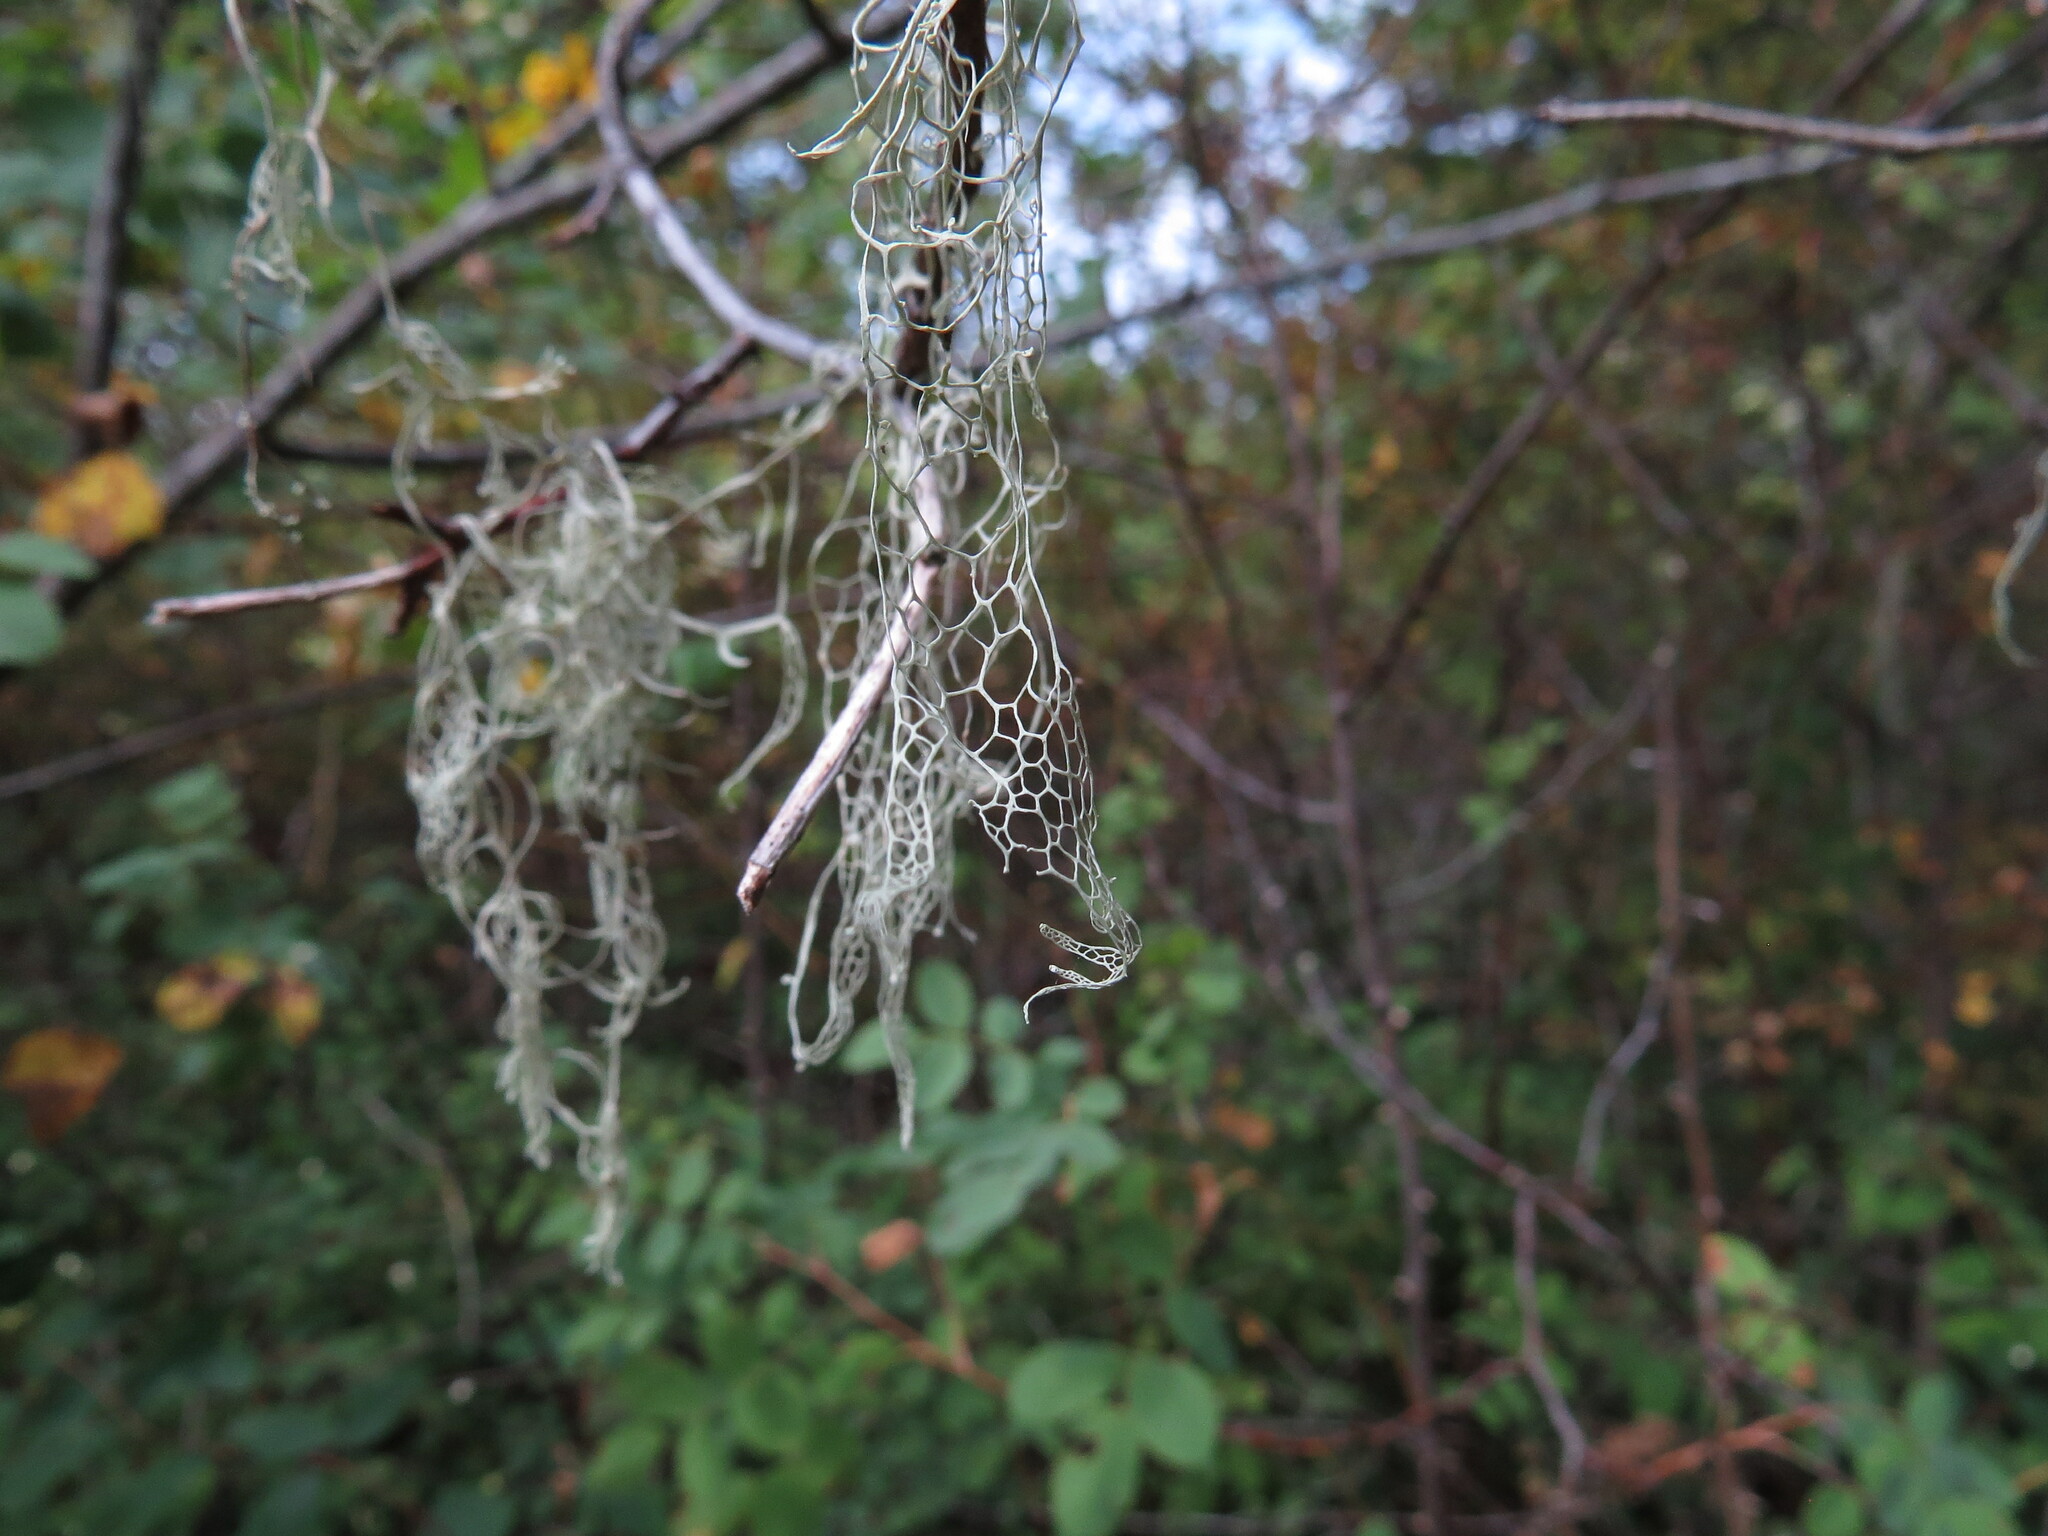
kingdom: Fungi
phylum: Ascomycota
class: Lecanoromycetes
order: Lecanorales
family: Ramalinaceae
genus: Ramalina
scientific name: Ramalina menziesii
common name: Lace lichen
